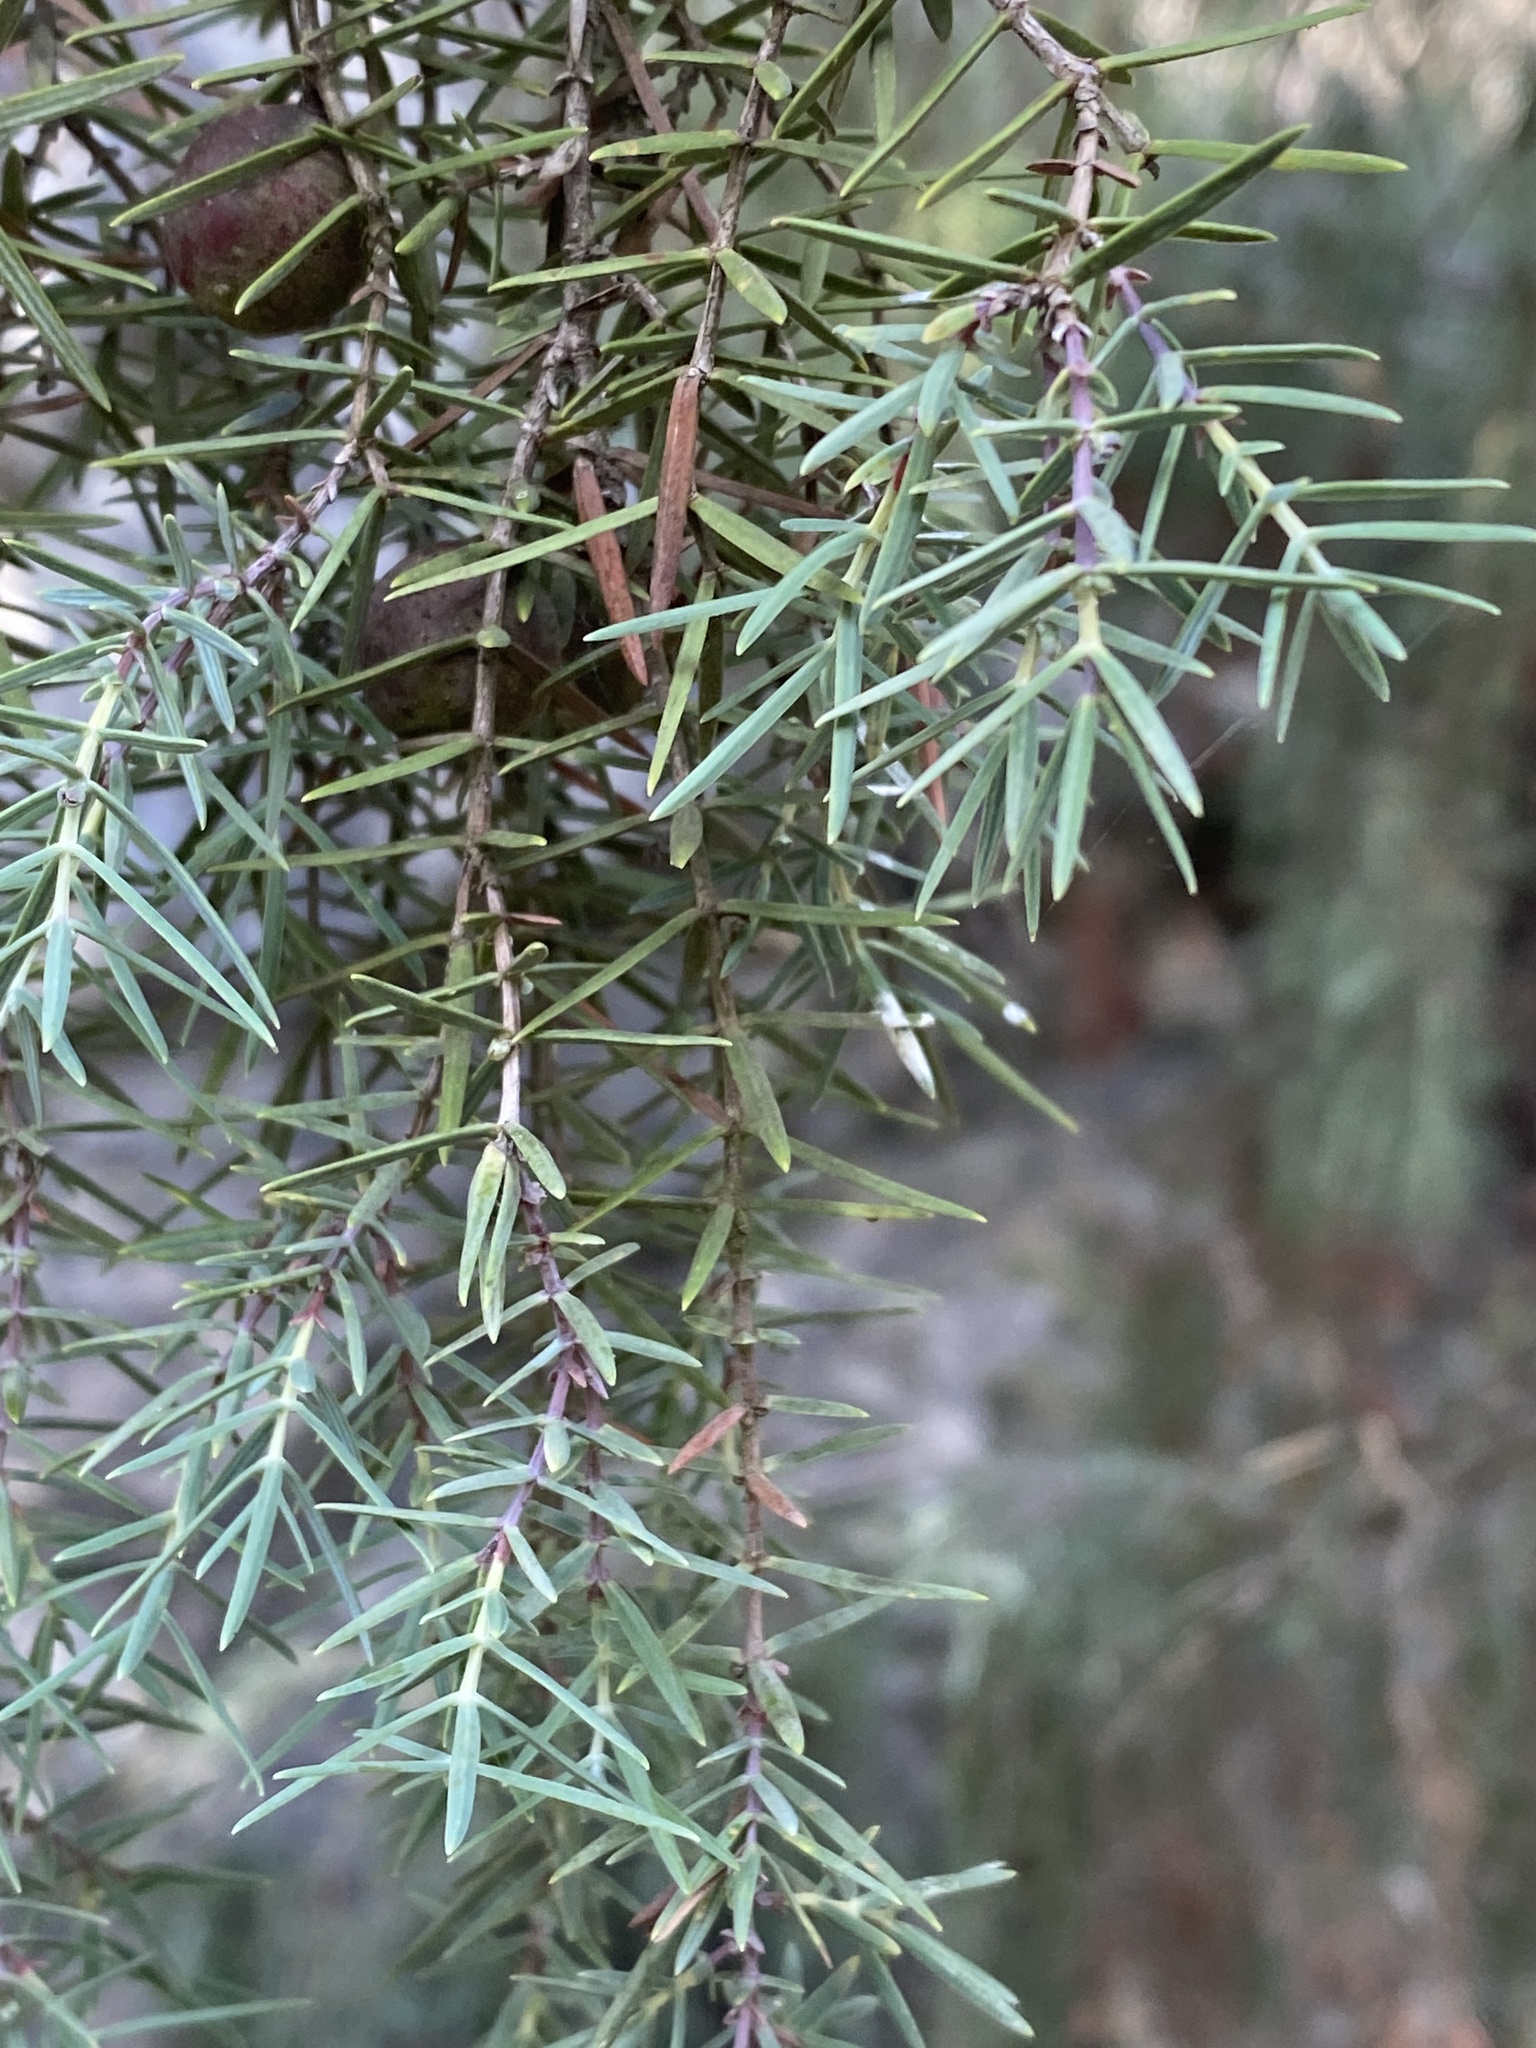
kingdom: Plantae
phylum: Tracheophyta
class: Pinopsida
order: Pinales
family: Cupressaceae
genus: Juniperus
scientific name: Juniperus oxycedrus
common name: Prickly juniper
